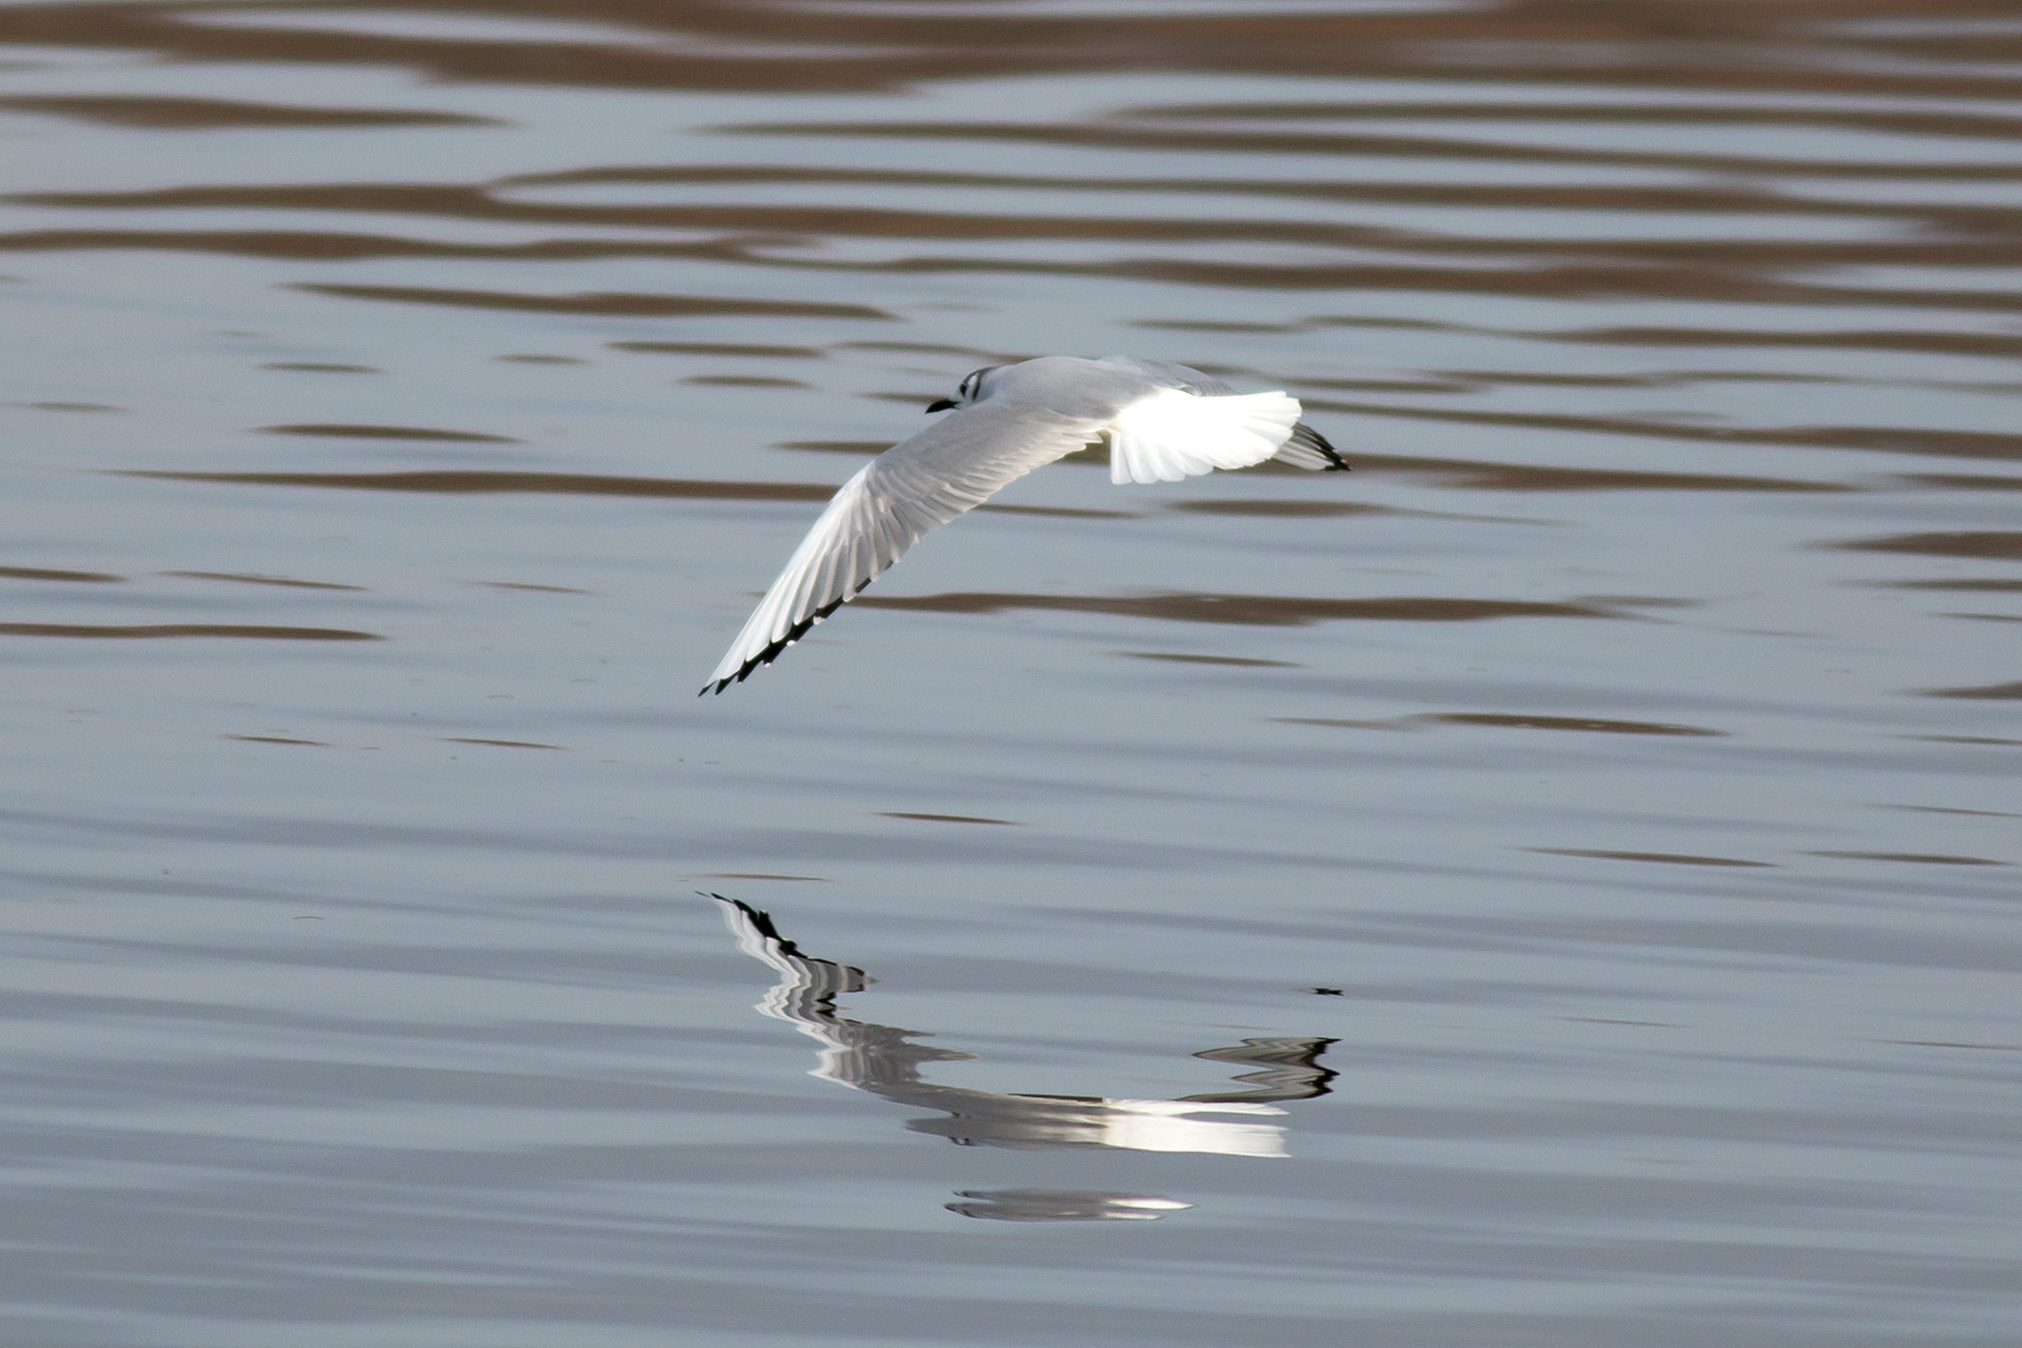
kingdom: Animalia
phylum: Chordata
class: Aves
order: Charadriiformes
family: Laridae
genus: Chroicocephalus
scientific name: Chroicocephalus philadelphia
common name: Bonaparte's gull
